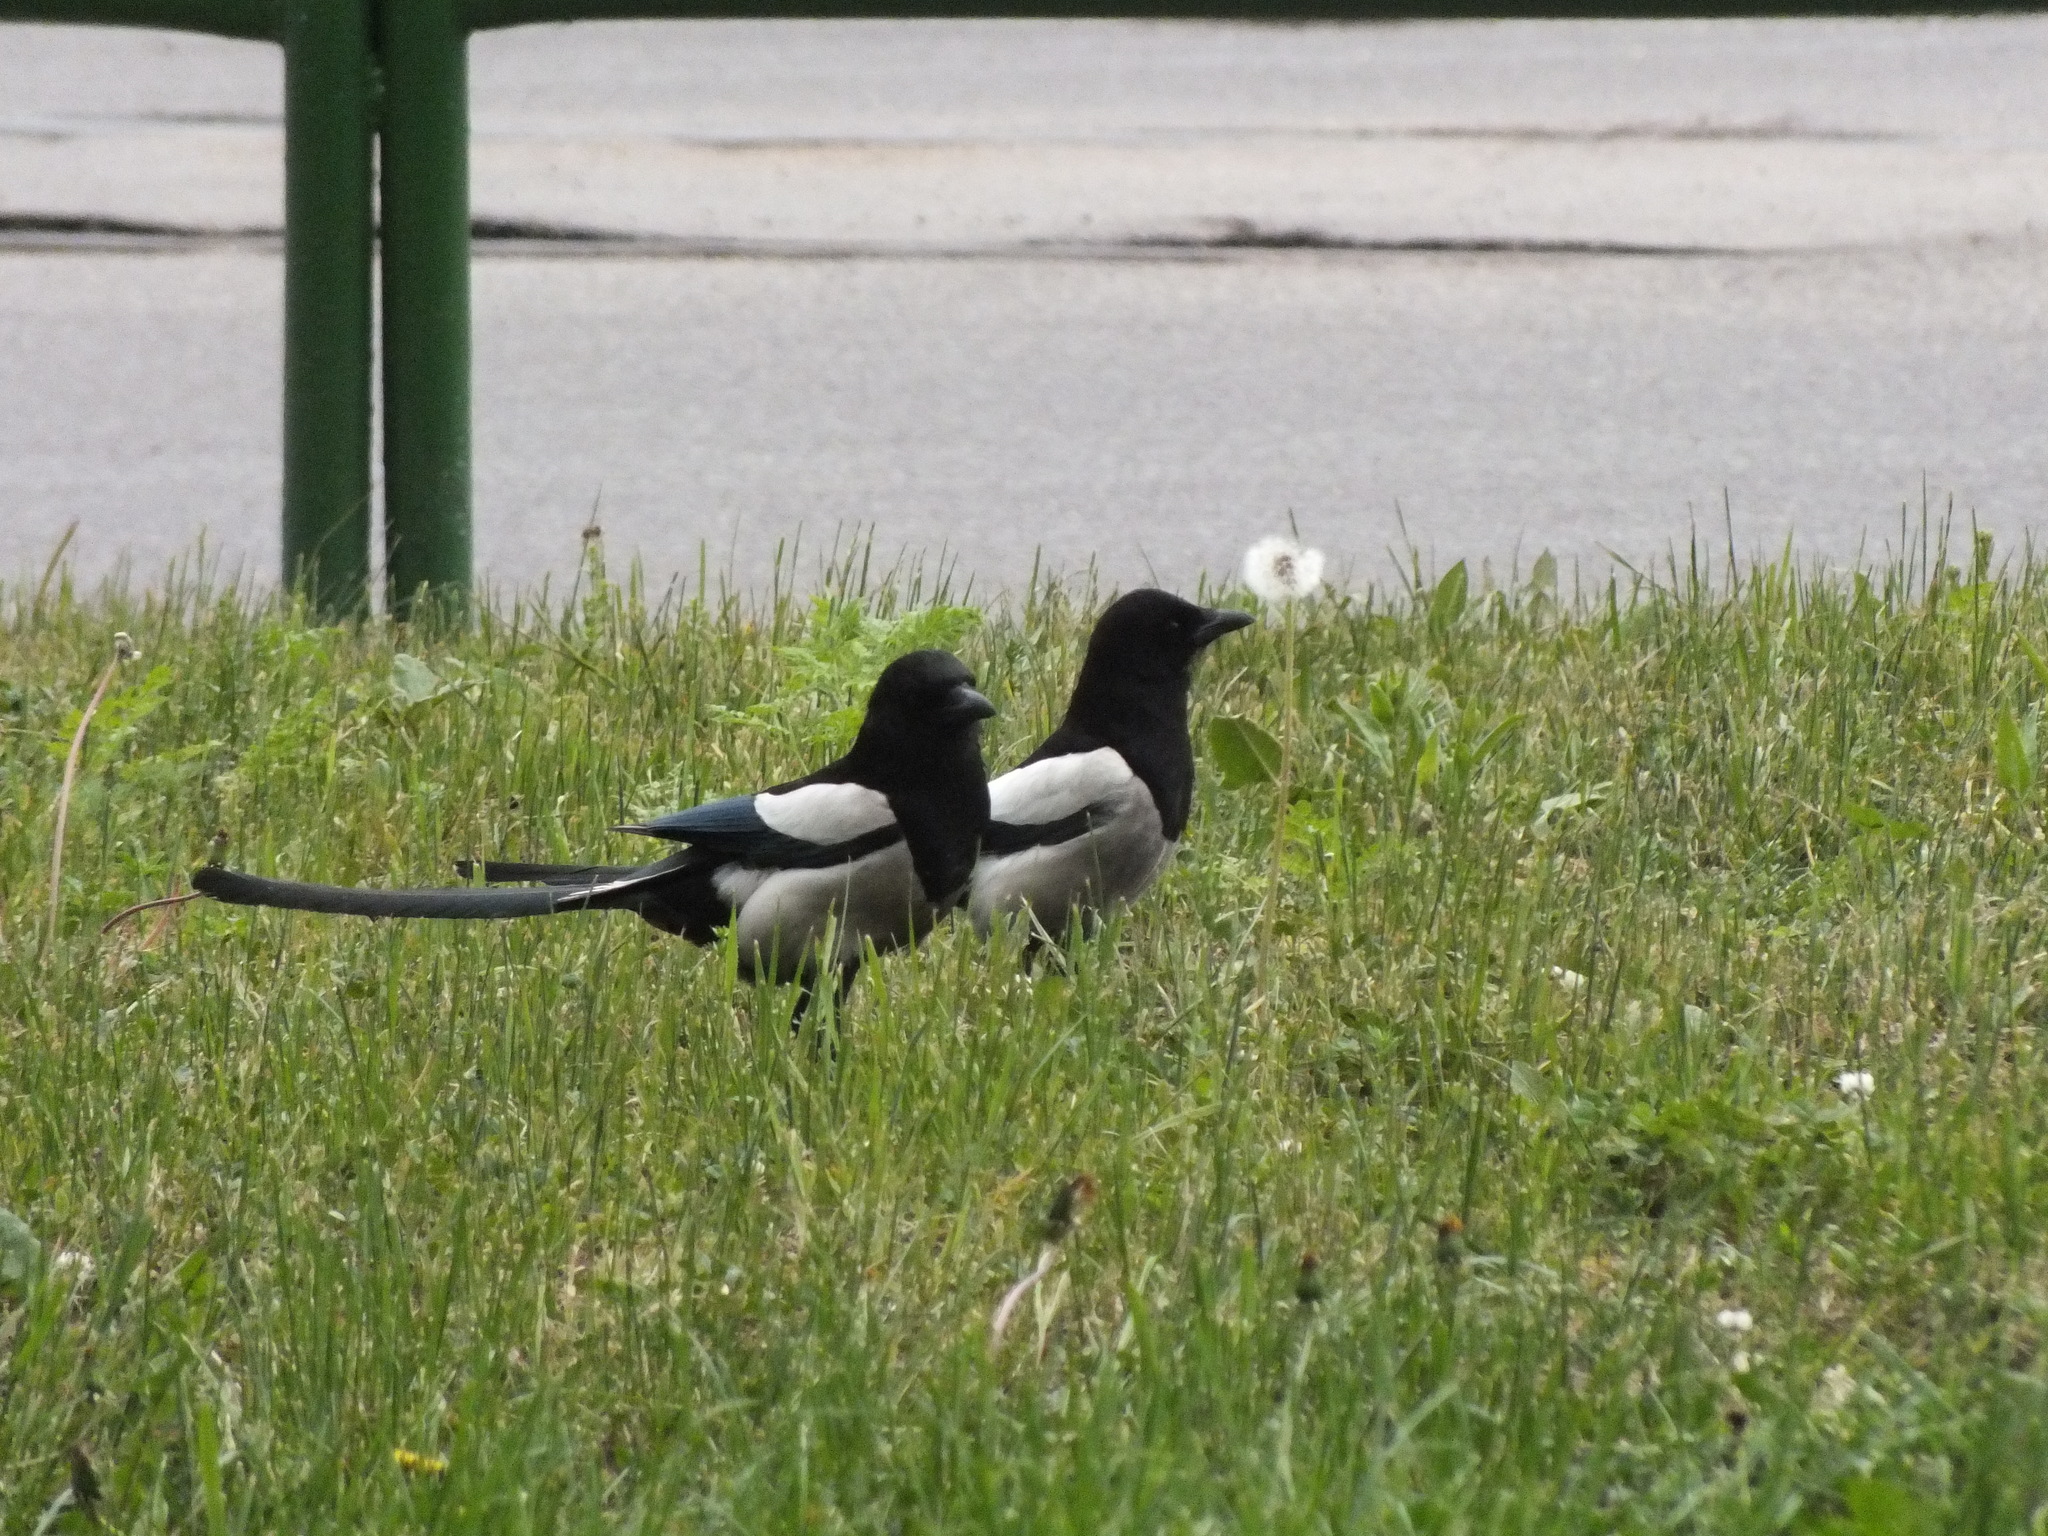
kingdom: Animalia
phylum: Chordata
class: Aves
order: Passeriformes
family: Corvidae
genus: Pica
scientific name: Pica pica
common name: Eurasian magpie
